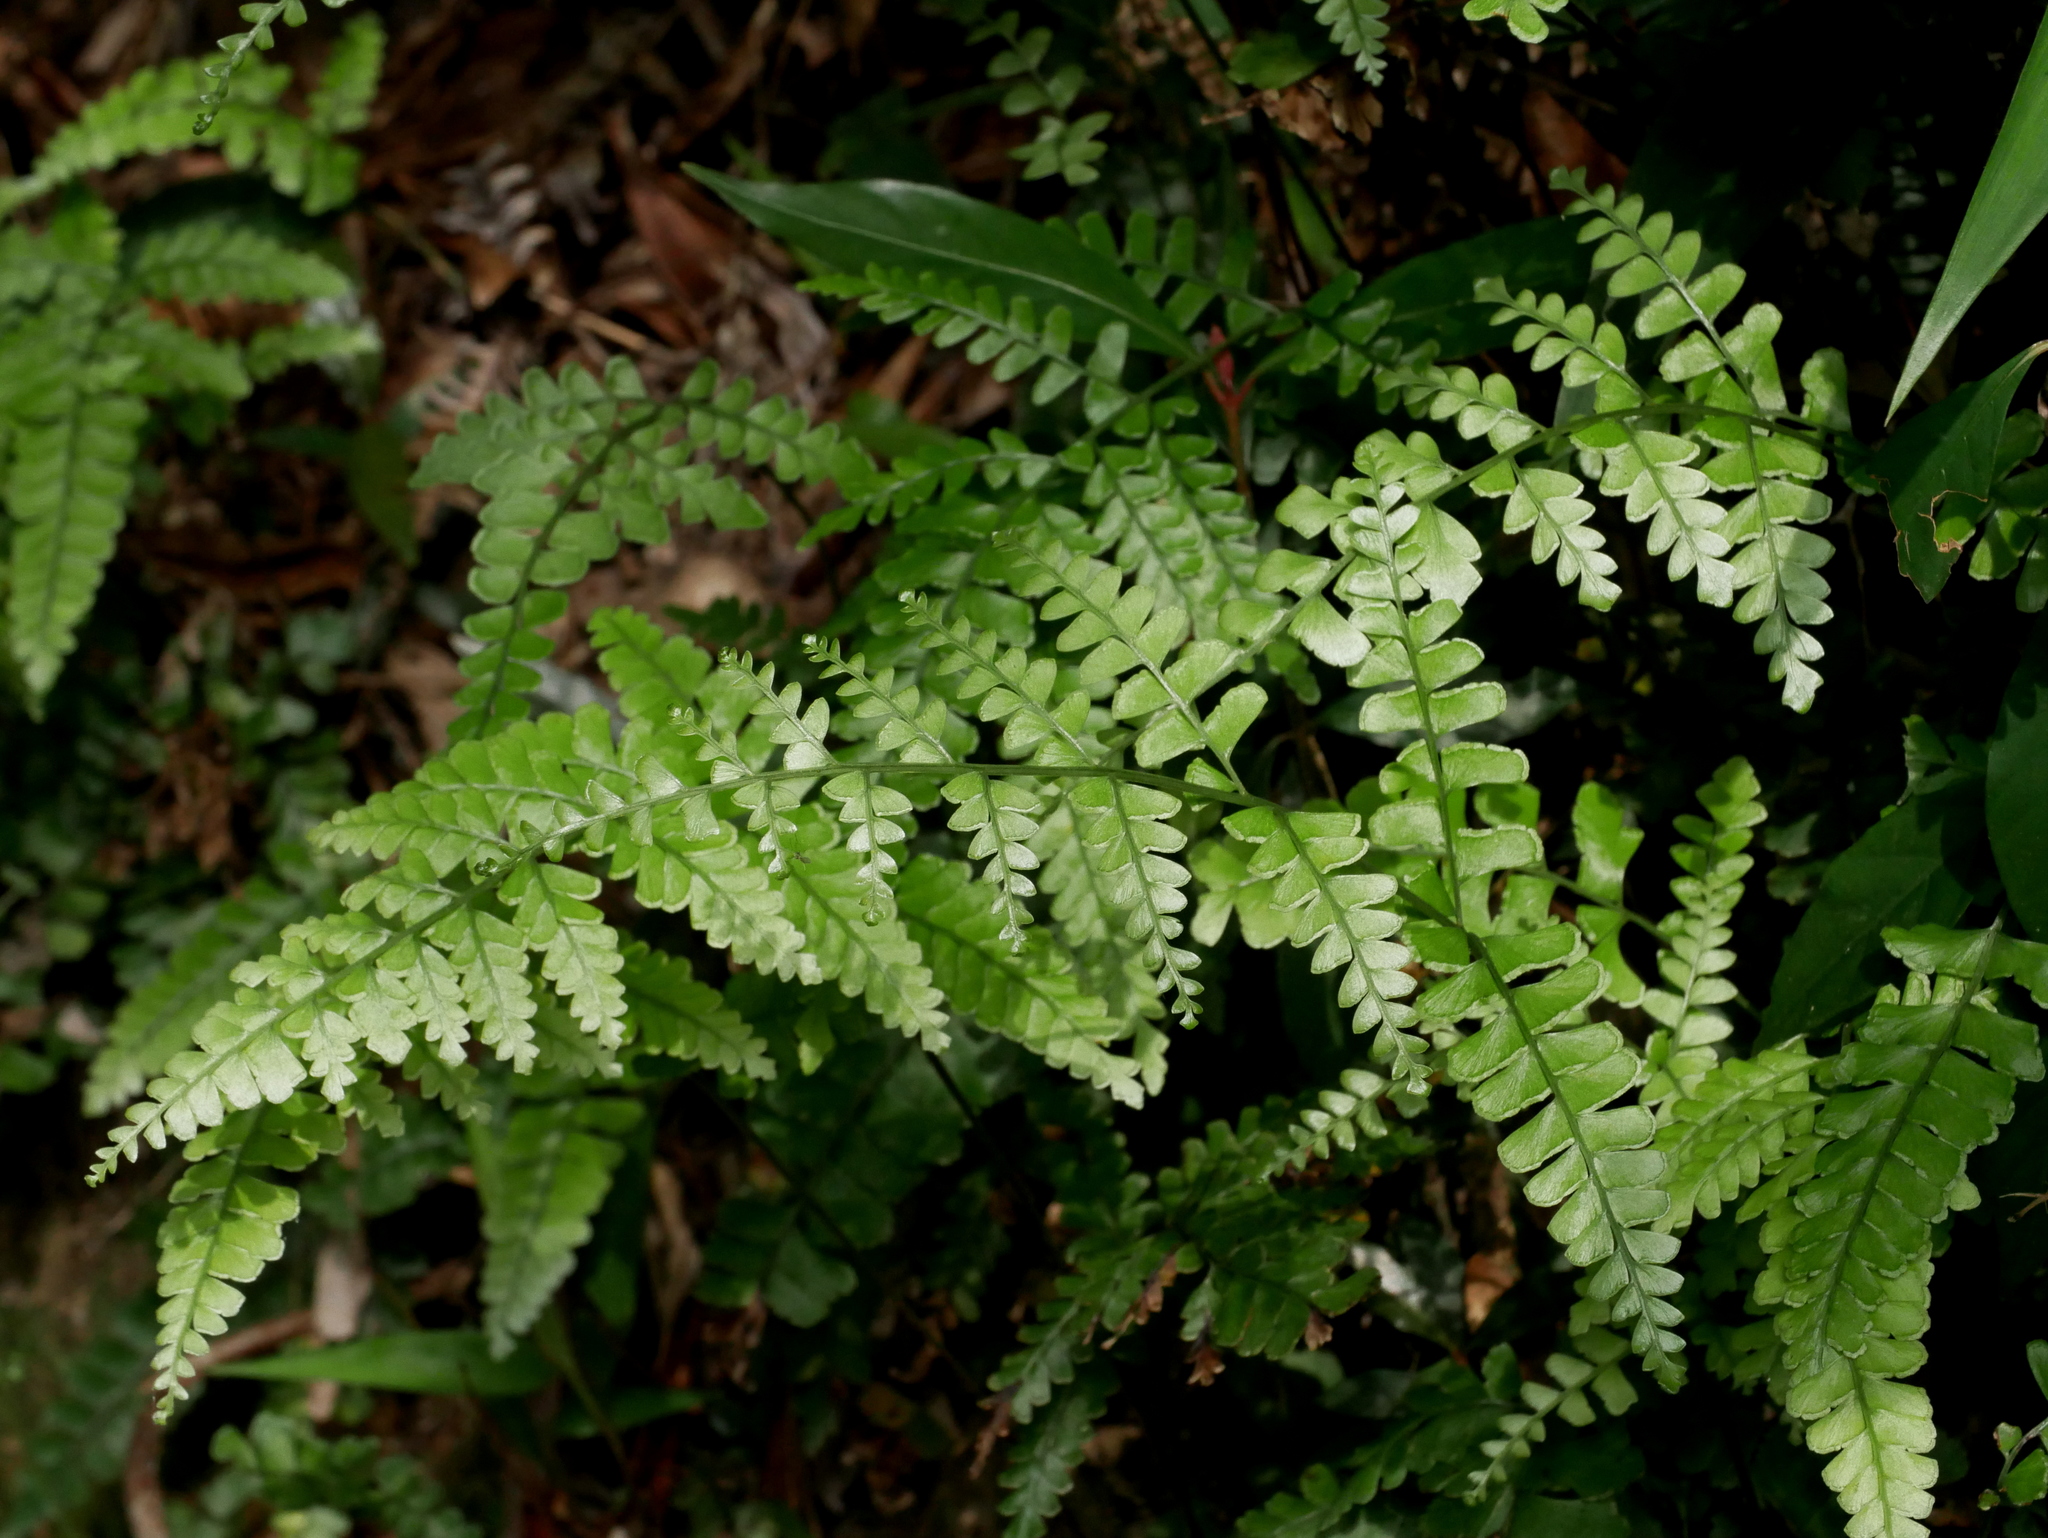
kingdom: Plantae
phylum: Tracheophyta
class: Polypodiopsida
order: Polypodiales
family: Lindsaeaceae
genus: Lindsaea
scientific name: Lindsaea bonii
